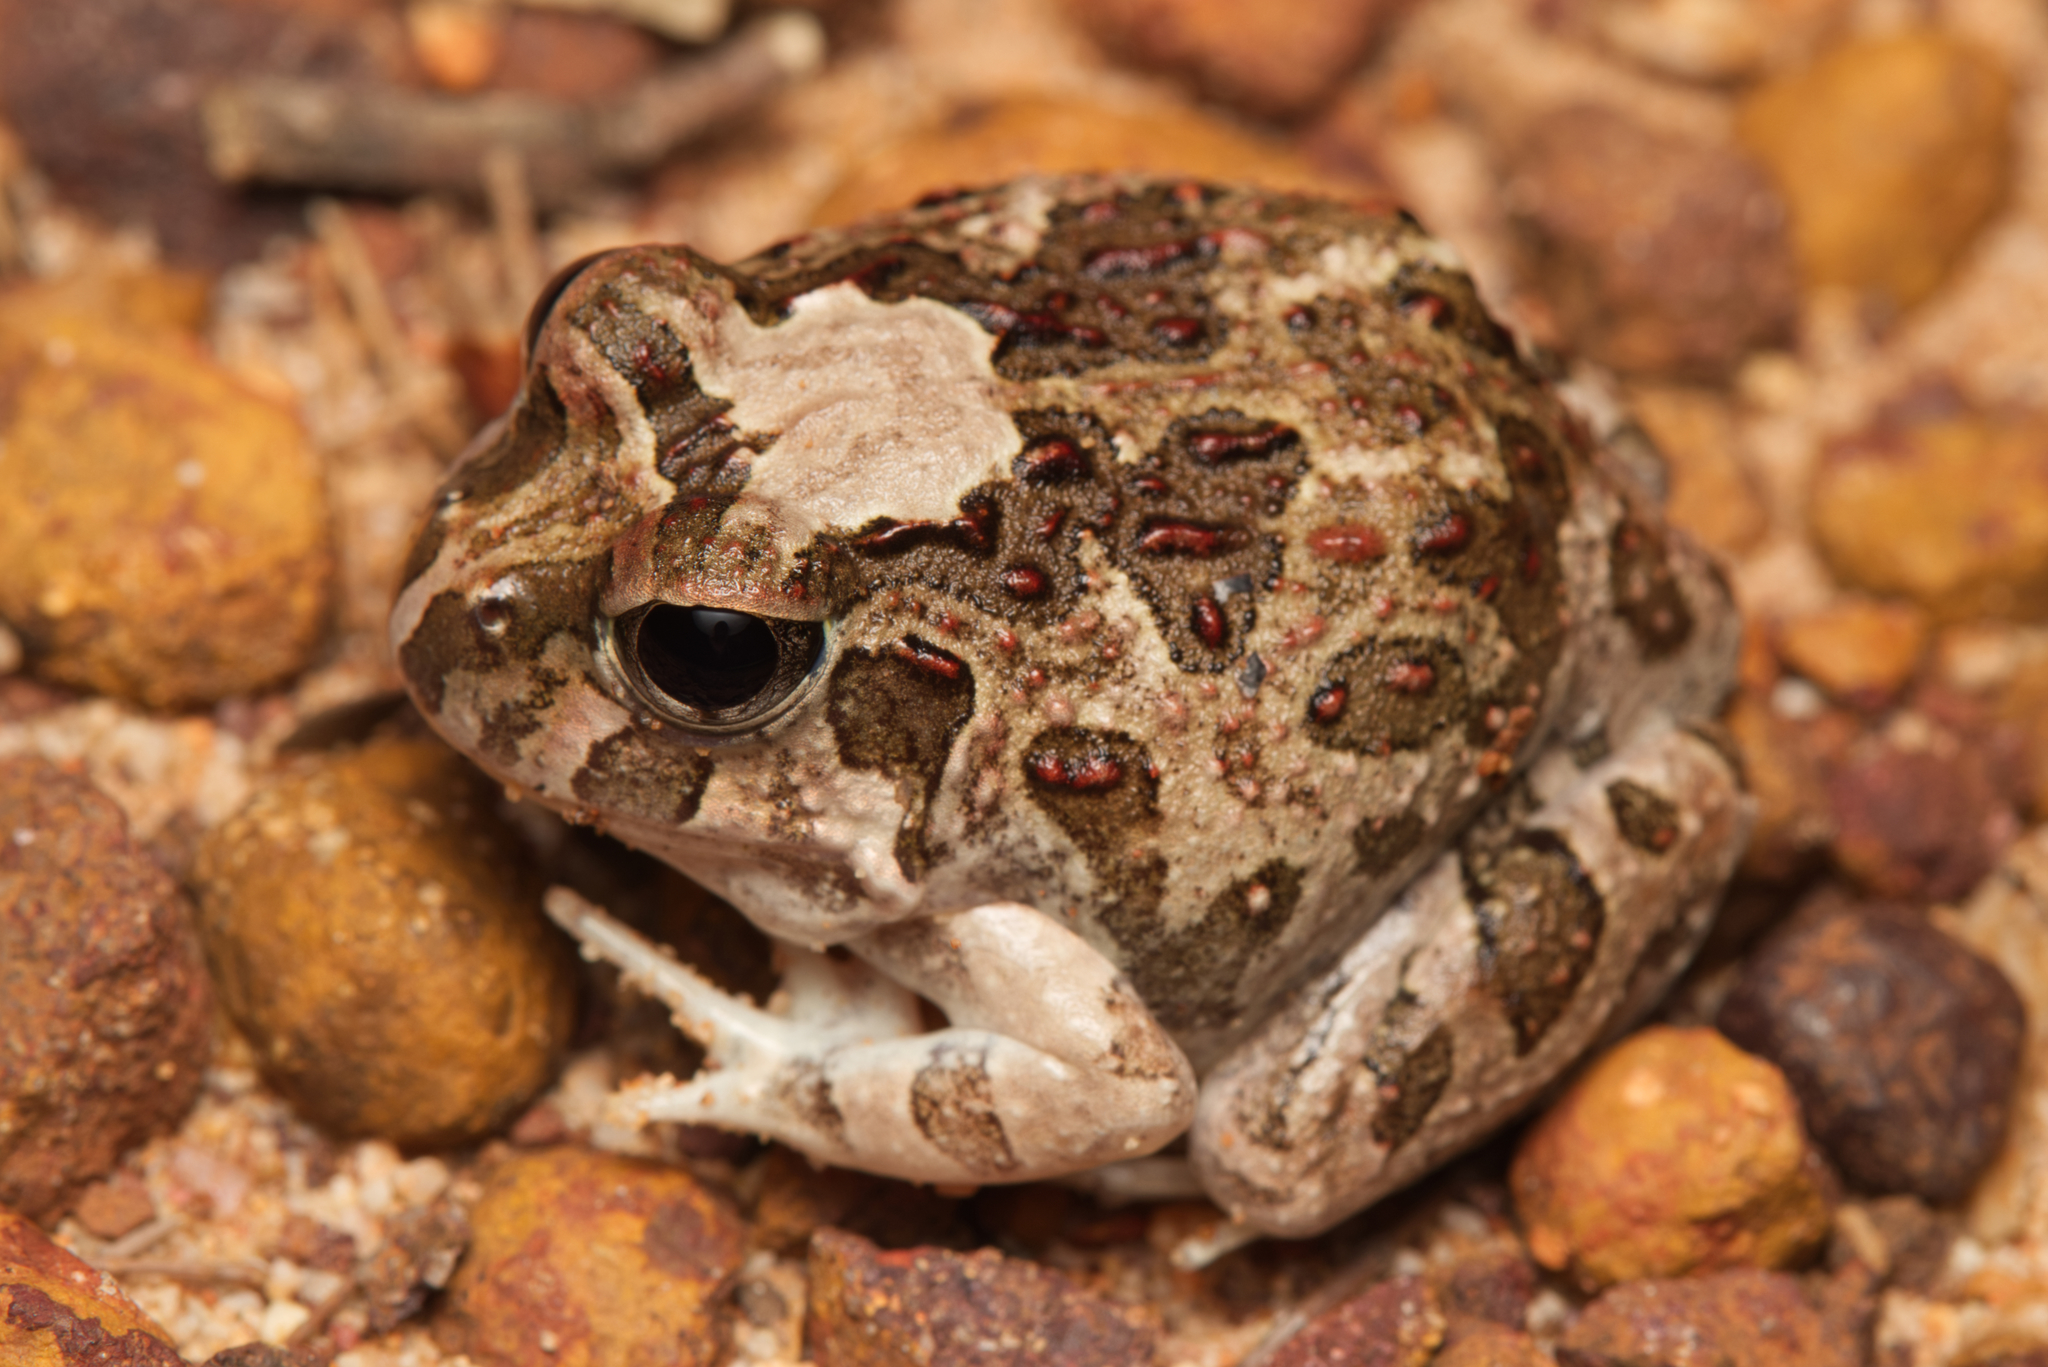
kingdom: Animalia
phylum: Chordata
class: Amphibia
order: Anura
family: Limnodynastidae
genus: Platyplectrum
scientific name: Platyplectrum ornatum
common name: Ornate burrowing frog
